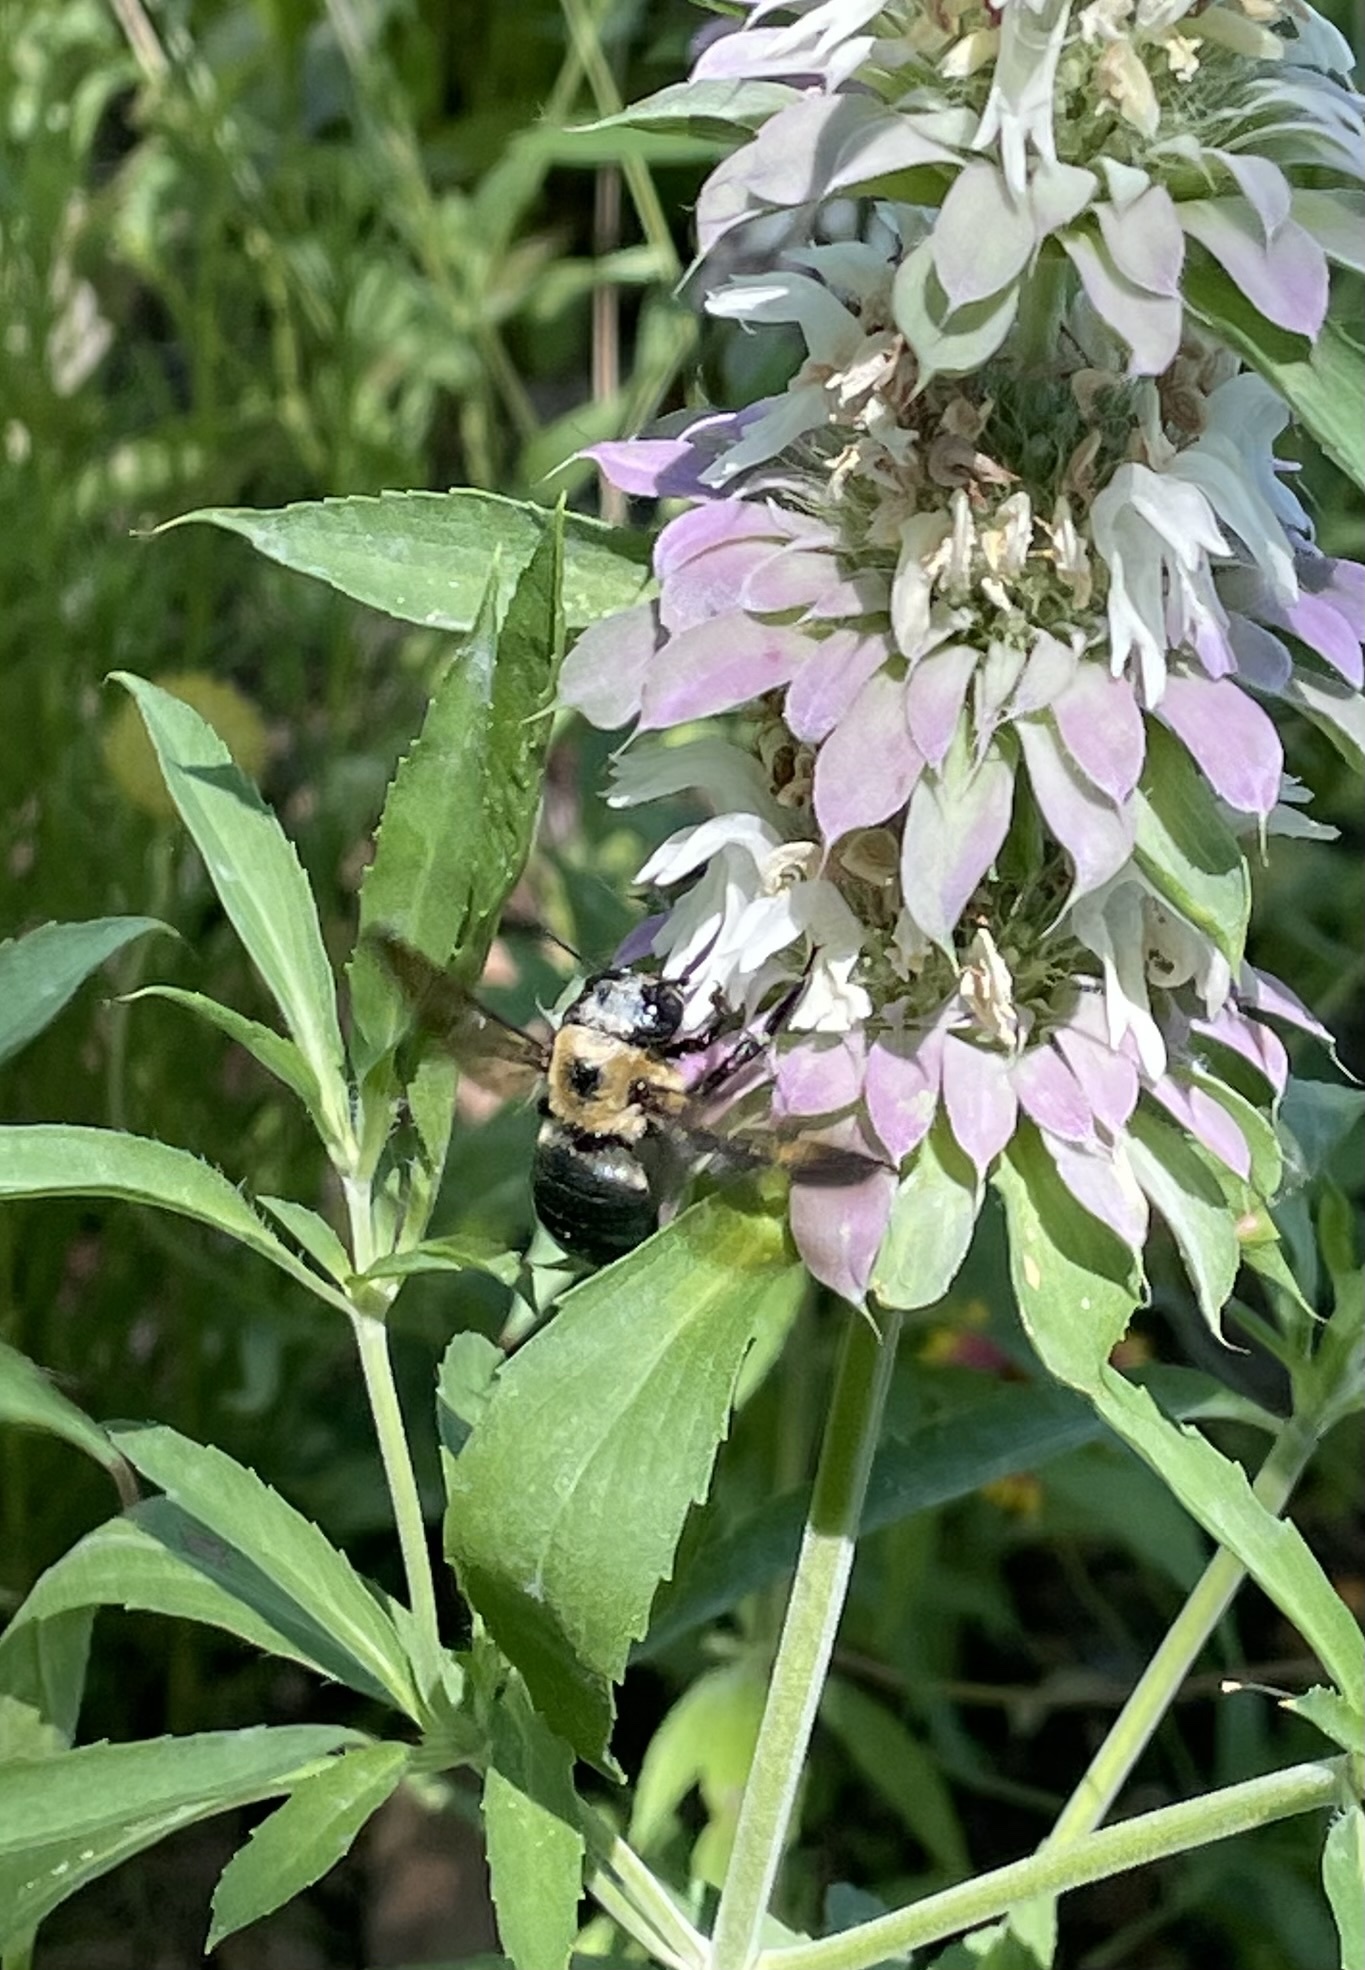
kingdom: Animalia
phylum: Arthropoda
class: Insecta
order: Hymenoptera
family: Apidae
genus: Xylocopa
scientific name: Xylocopa virginica
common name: Carpenter bee
